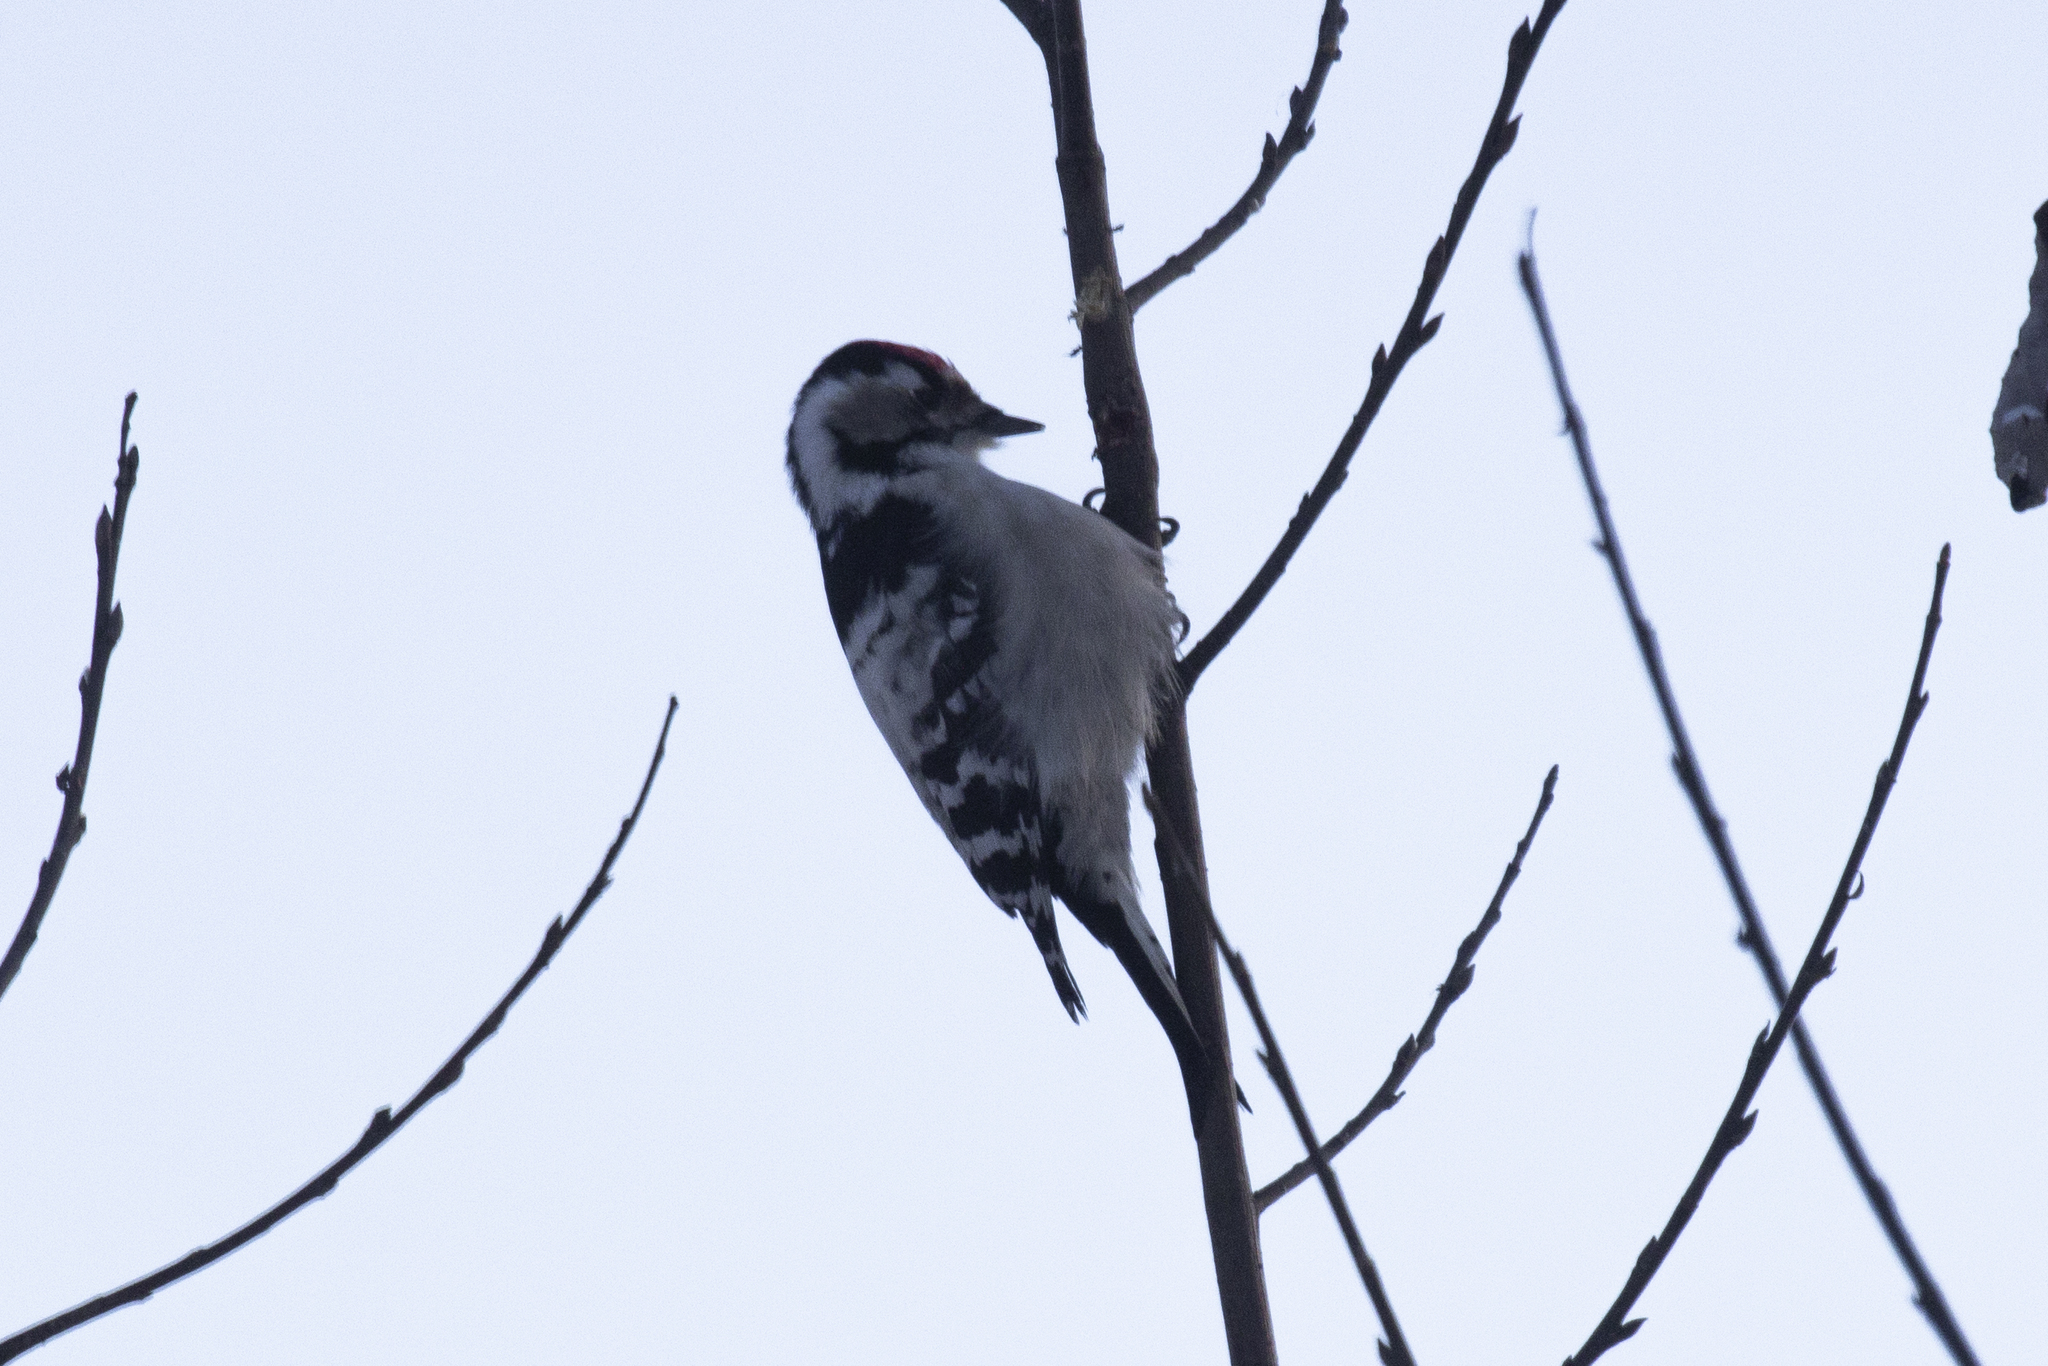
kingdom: Animalia
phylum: Chordata
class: Aves
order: Piciformes
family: Picidae
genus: Dryobates
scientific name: Dryobates minor
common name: Lesser spotted woodpecker
